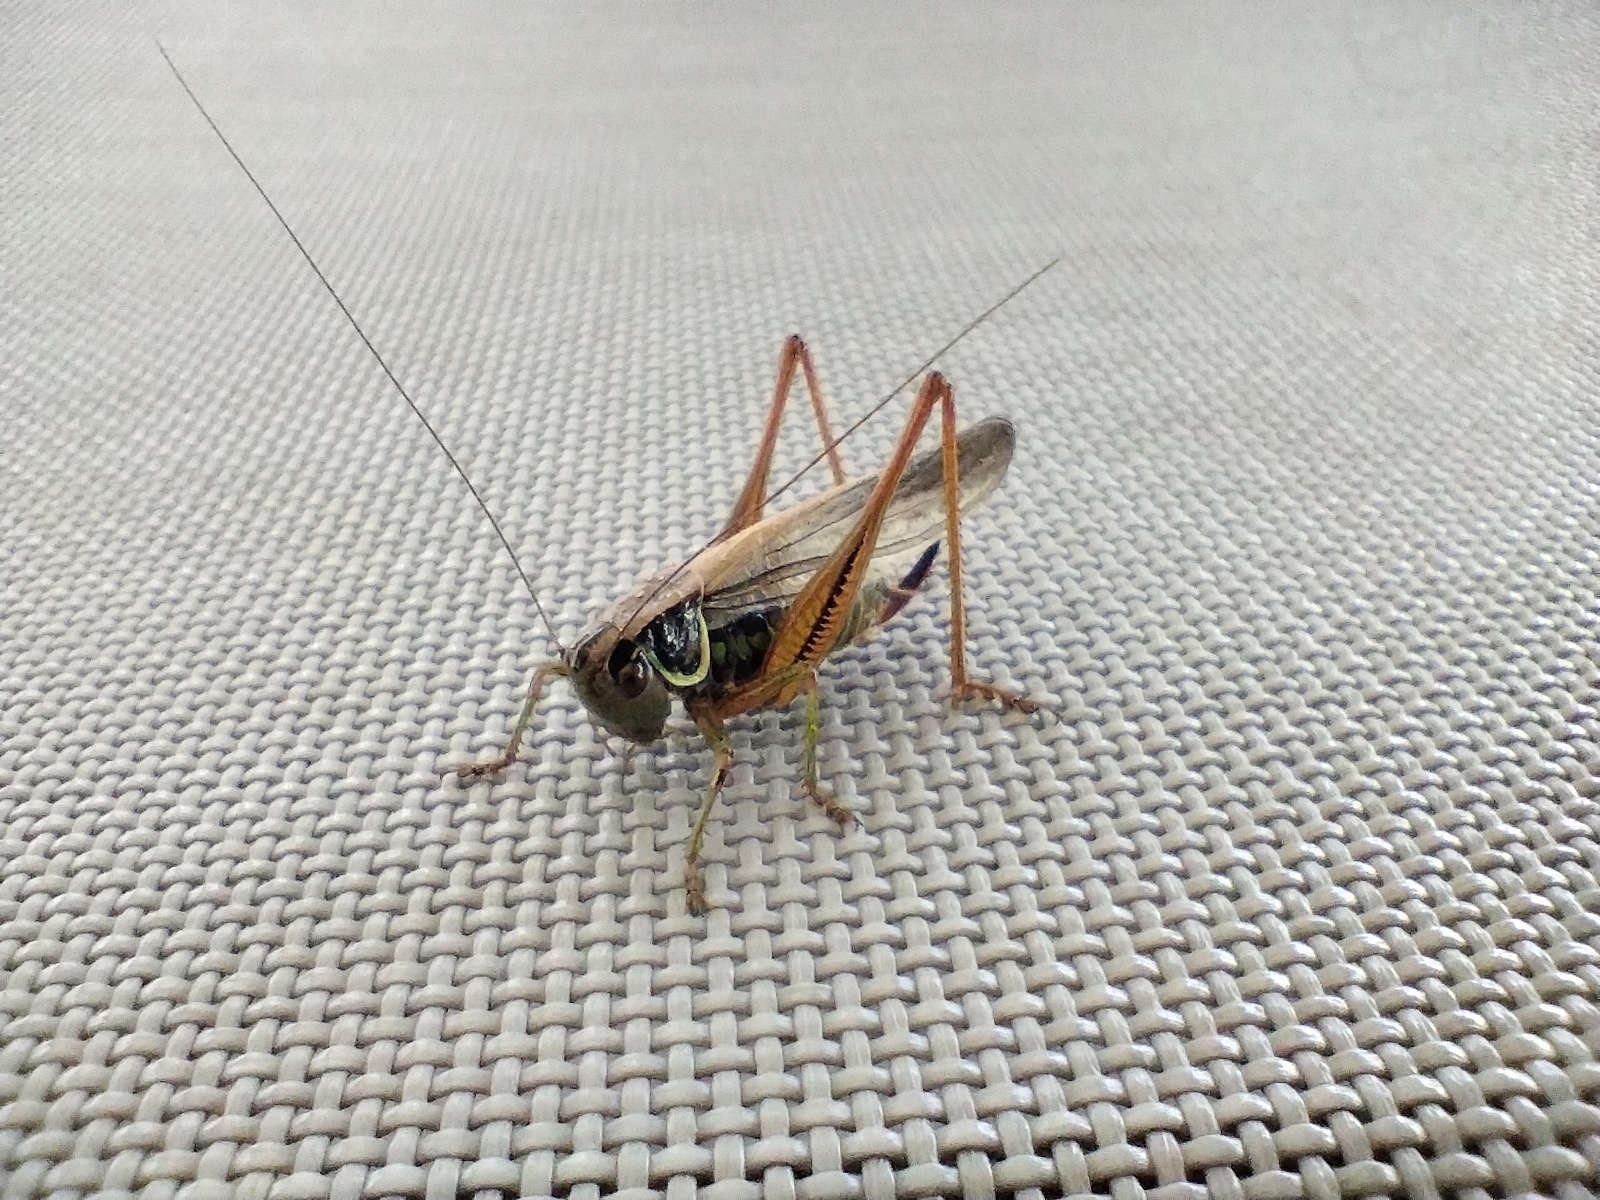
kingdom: Animalia
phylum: Arthropoda
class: Insecta
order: Orthoptera
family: Tettigoniidae
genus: Roeseliana
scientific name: Roeseliana roeselii
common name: Roesel's bush cricket
